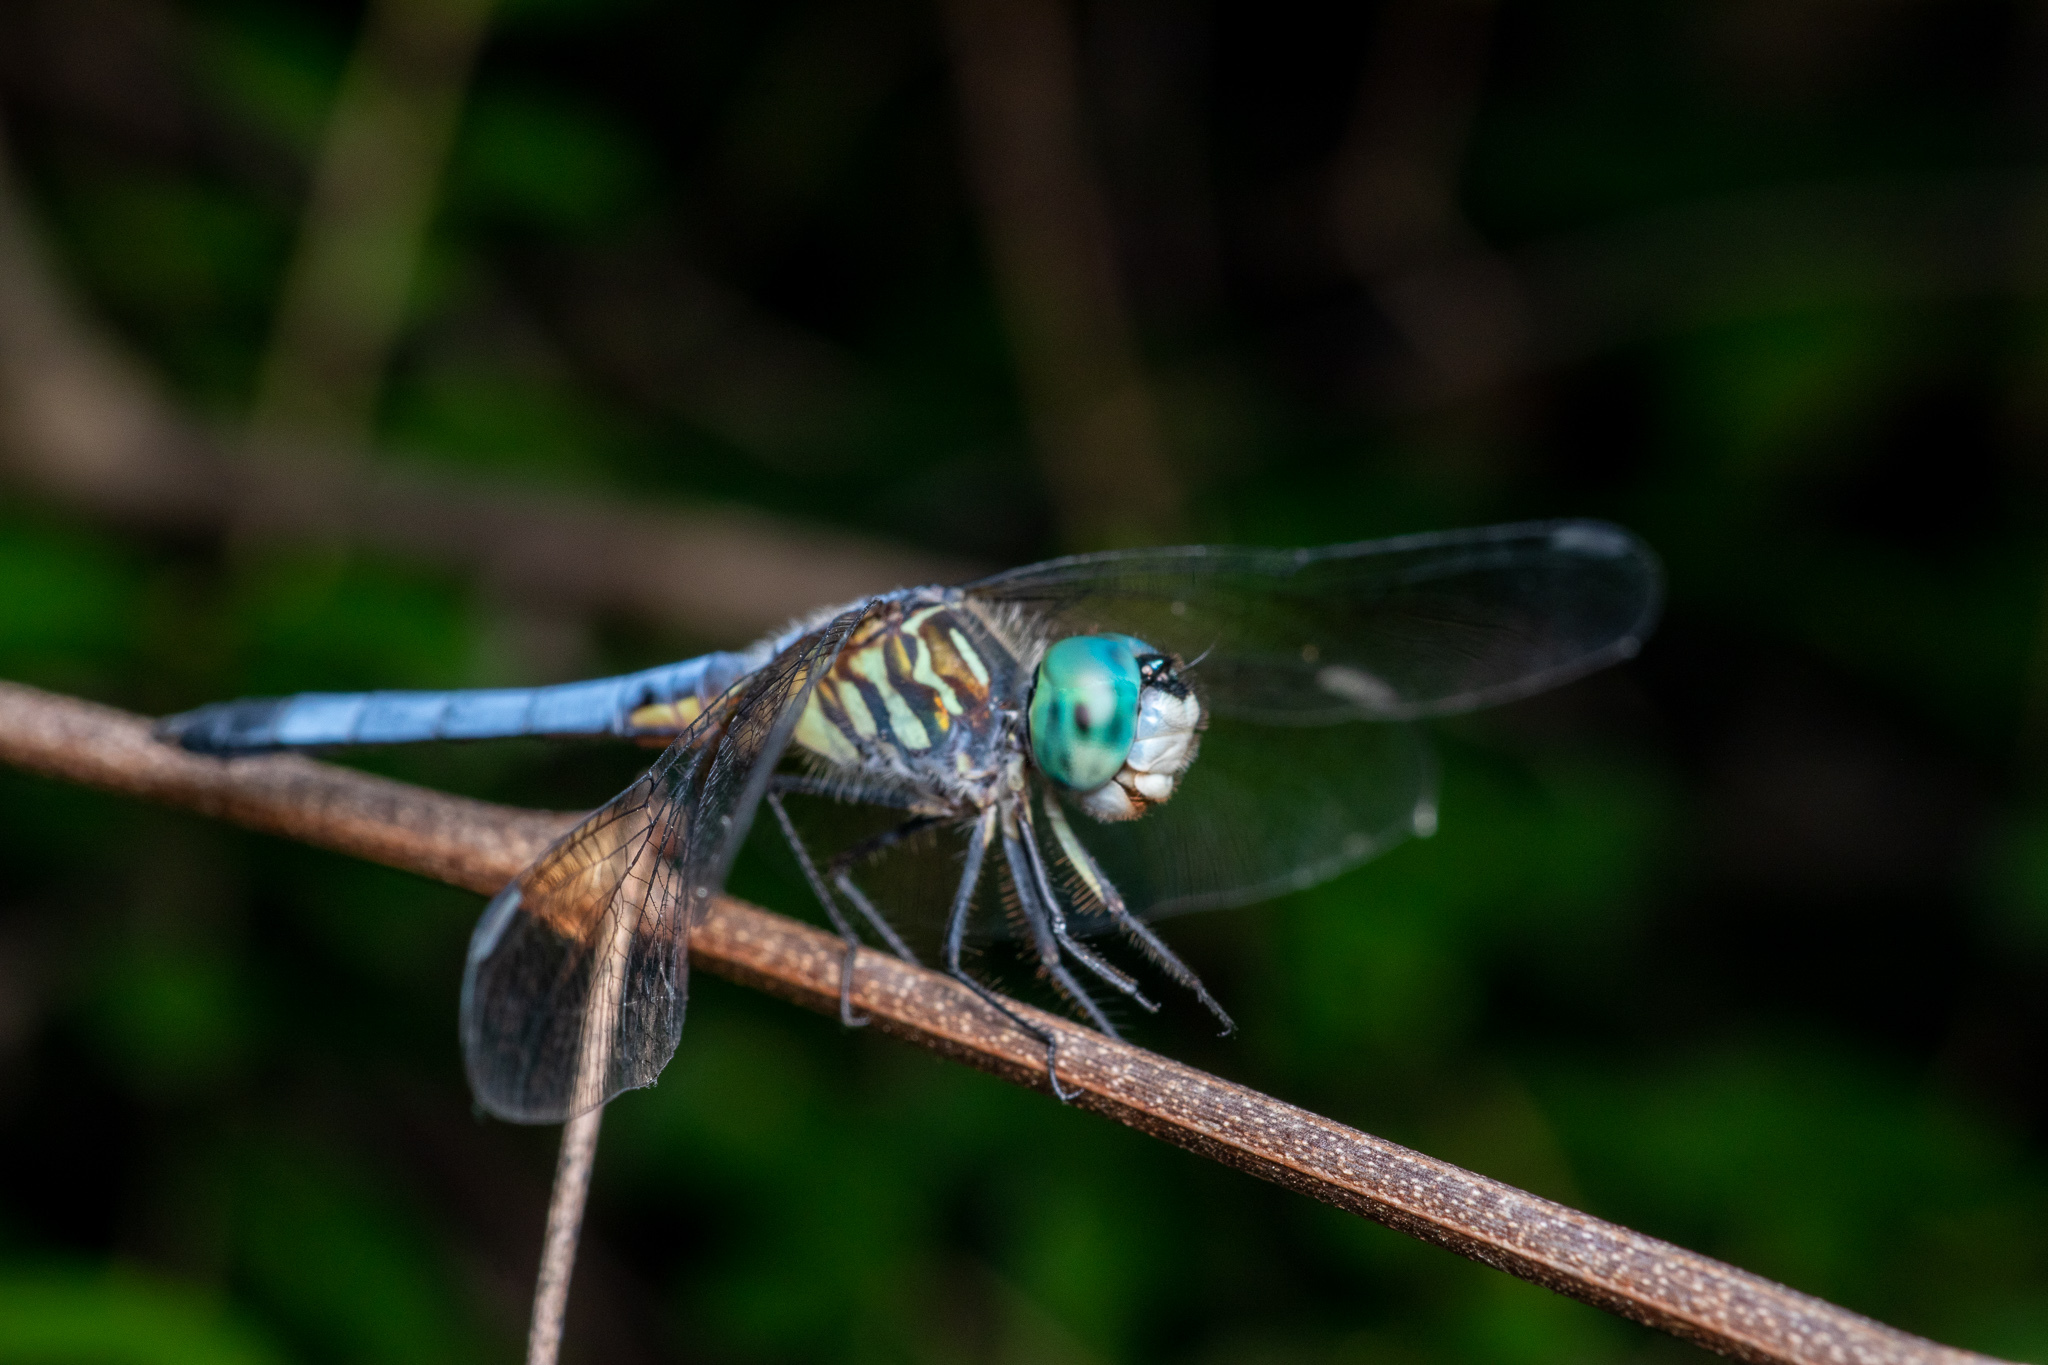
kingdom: Animalia
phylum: Arthropoda
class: Insecta
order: Odonata
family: Libellulidae
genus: Pachydiplax
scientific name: Pachydiplax longipennis
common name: Blue dasher
